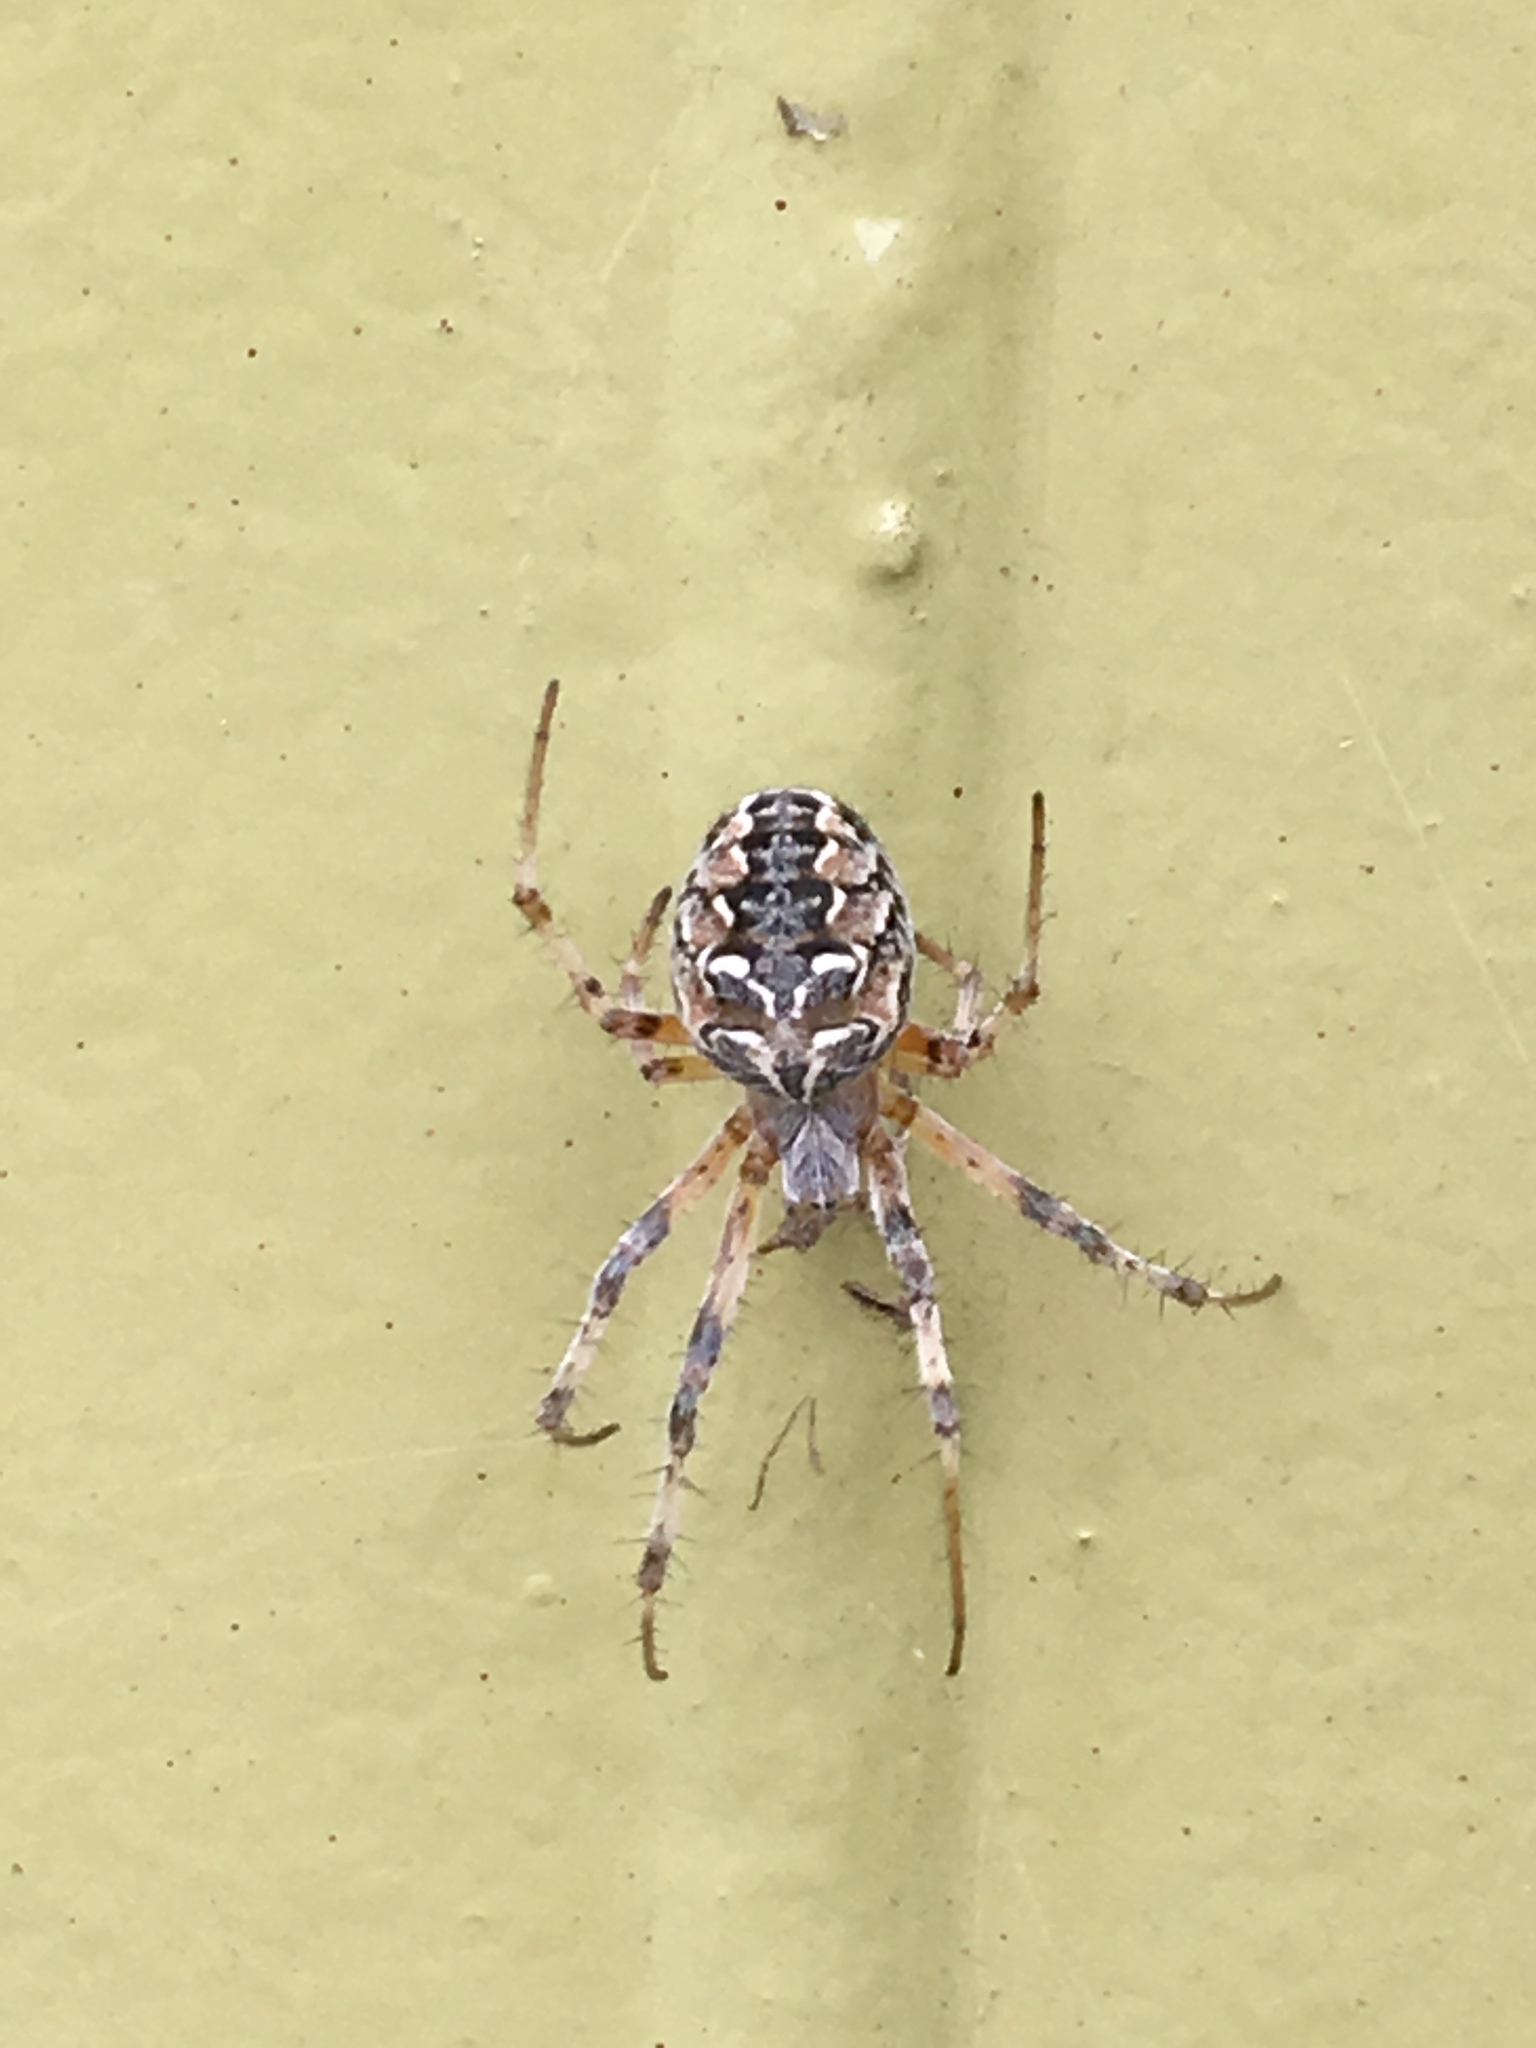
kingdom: Animalia
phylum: Arthropoda
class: Arachnida
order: Araneae
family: Araneidae
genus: Metepeira
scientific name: Metepeira
